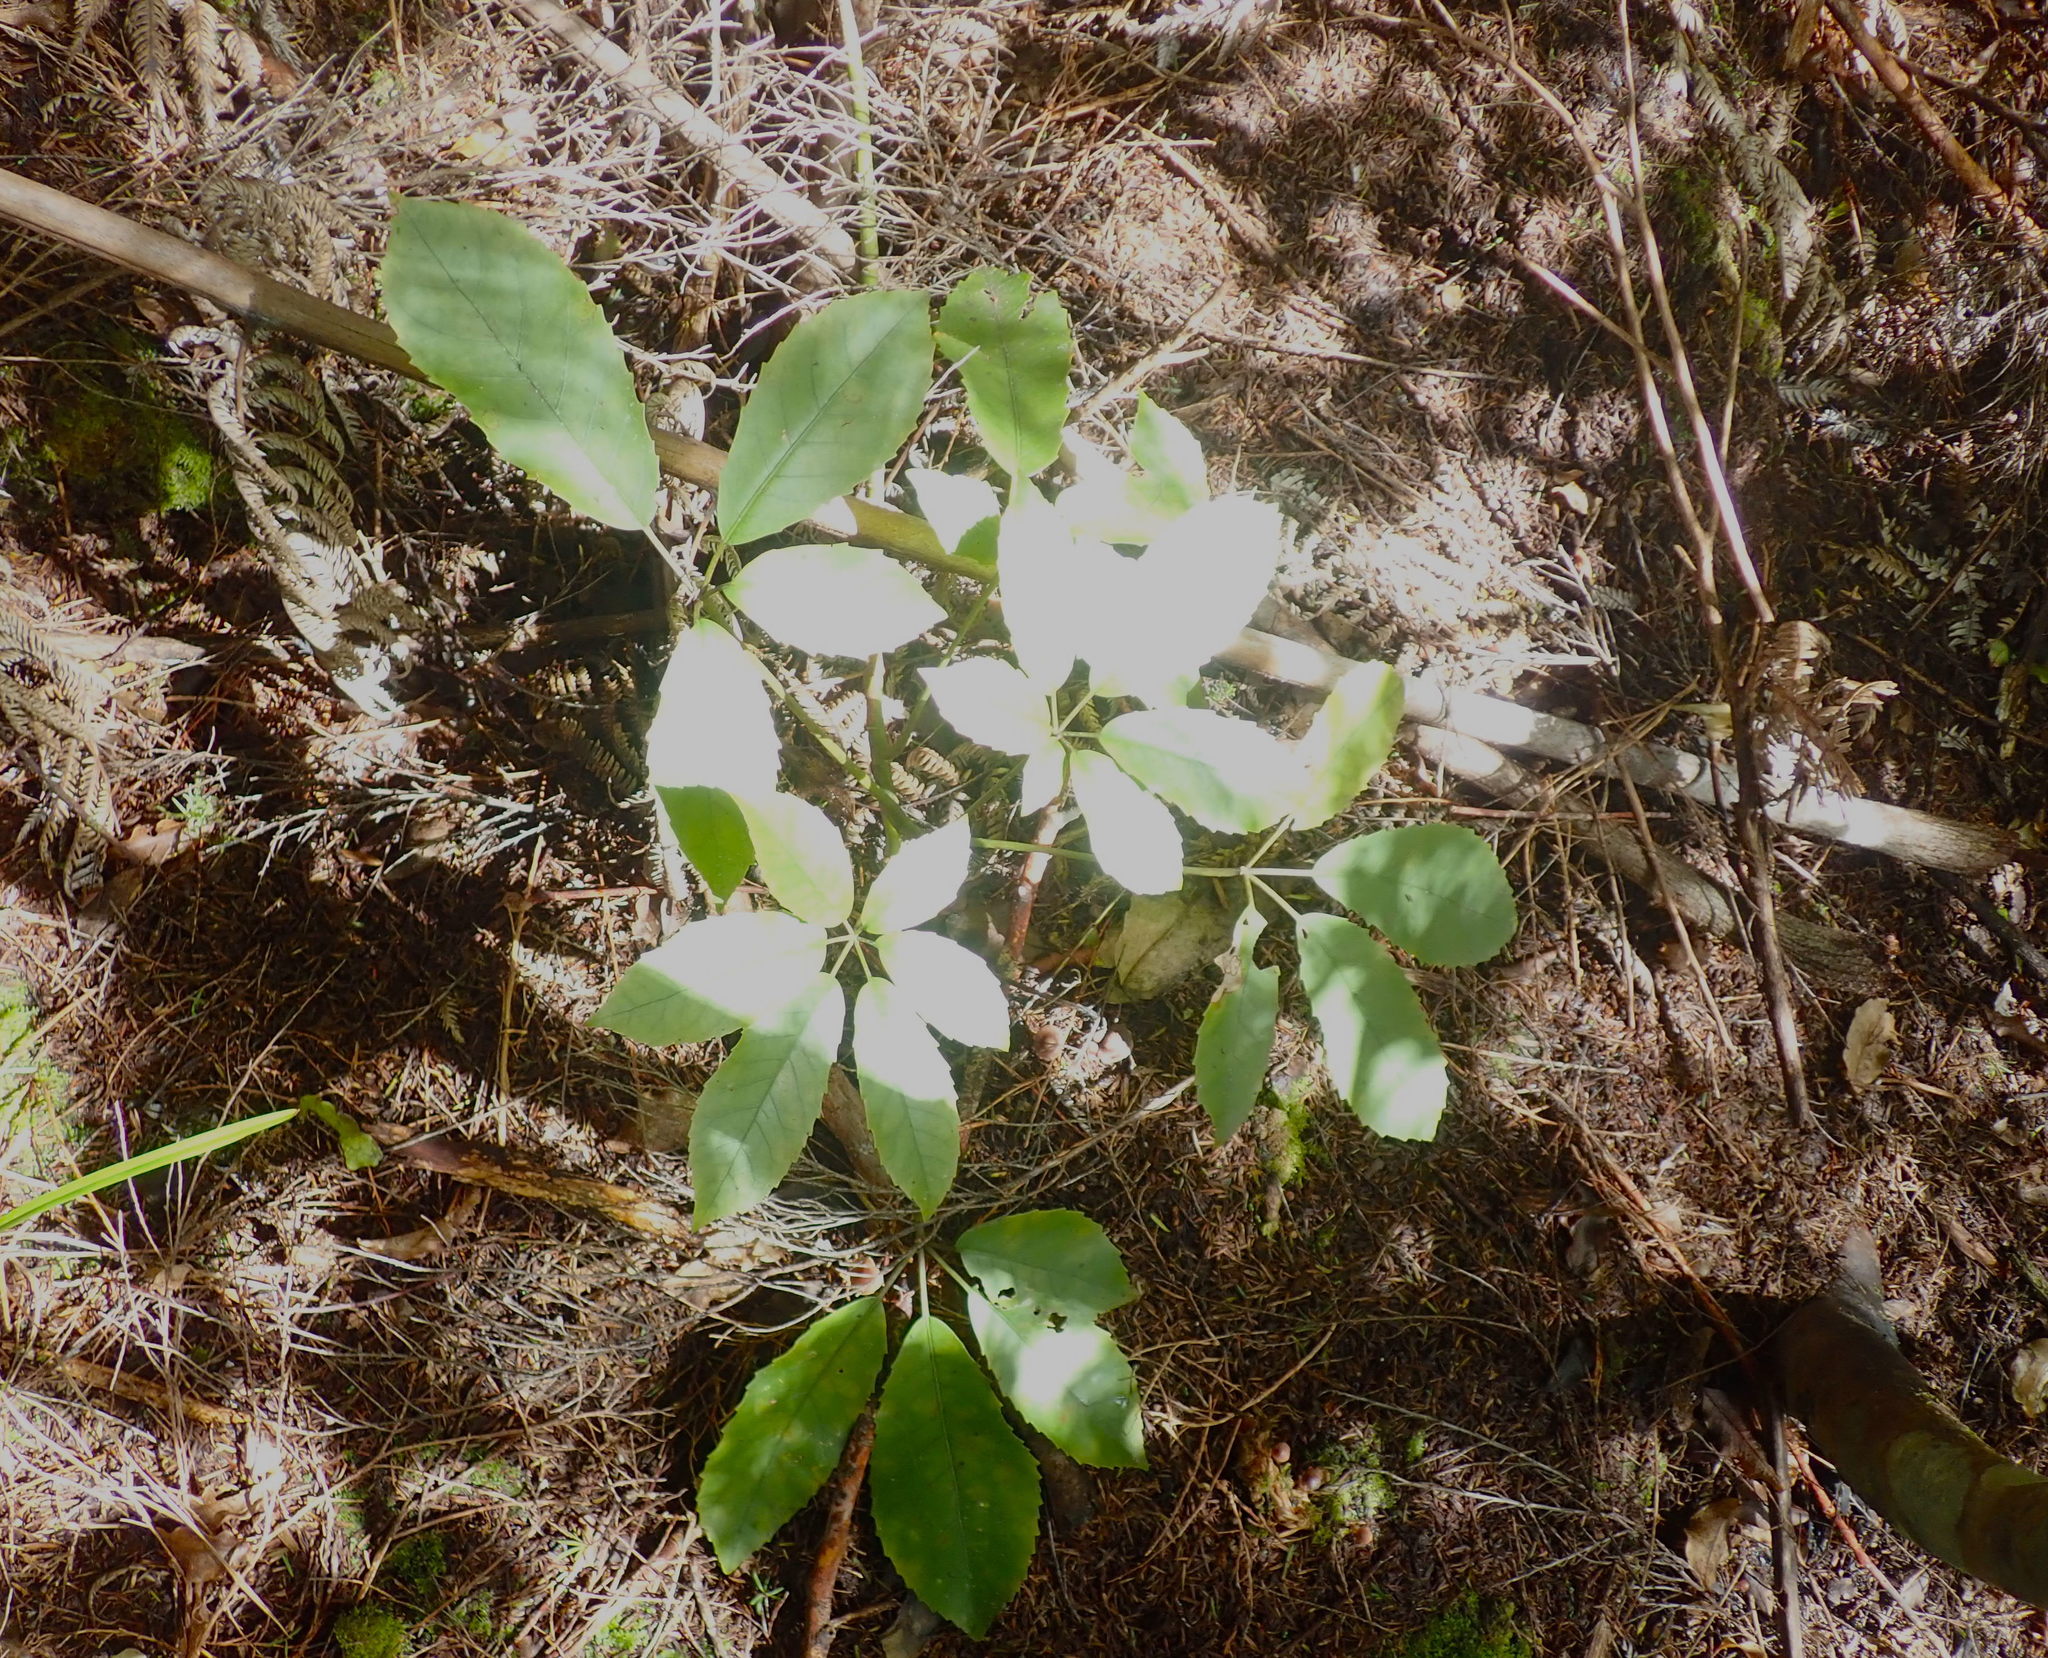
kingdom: Plantae
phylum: Tracheophyta
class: Magnoliopsida
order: Apiales
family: Araliaceae
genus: Neopanax
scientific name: Neopanax arboreus
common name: Five-fingers
